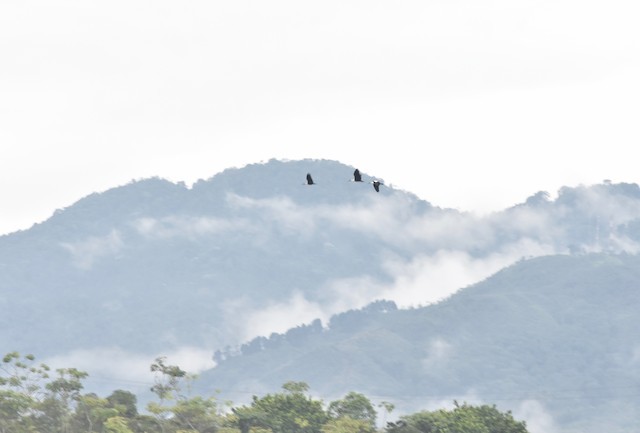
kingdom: Animalia
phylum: Chordata
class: Aves
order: Pelecaniformes
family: Threskiornithidae
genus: Theristicus
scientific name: Theristicus caudatus
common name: Buff-necked ibis
